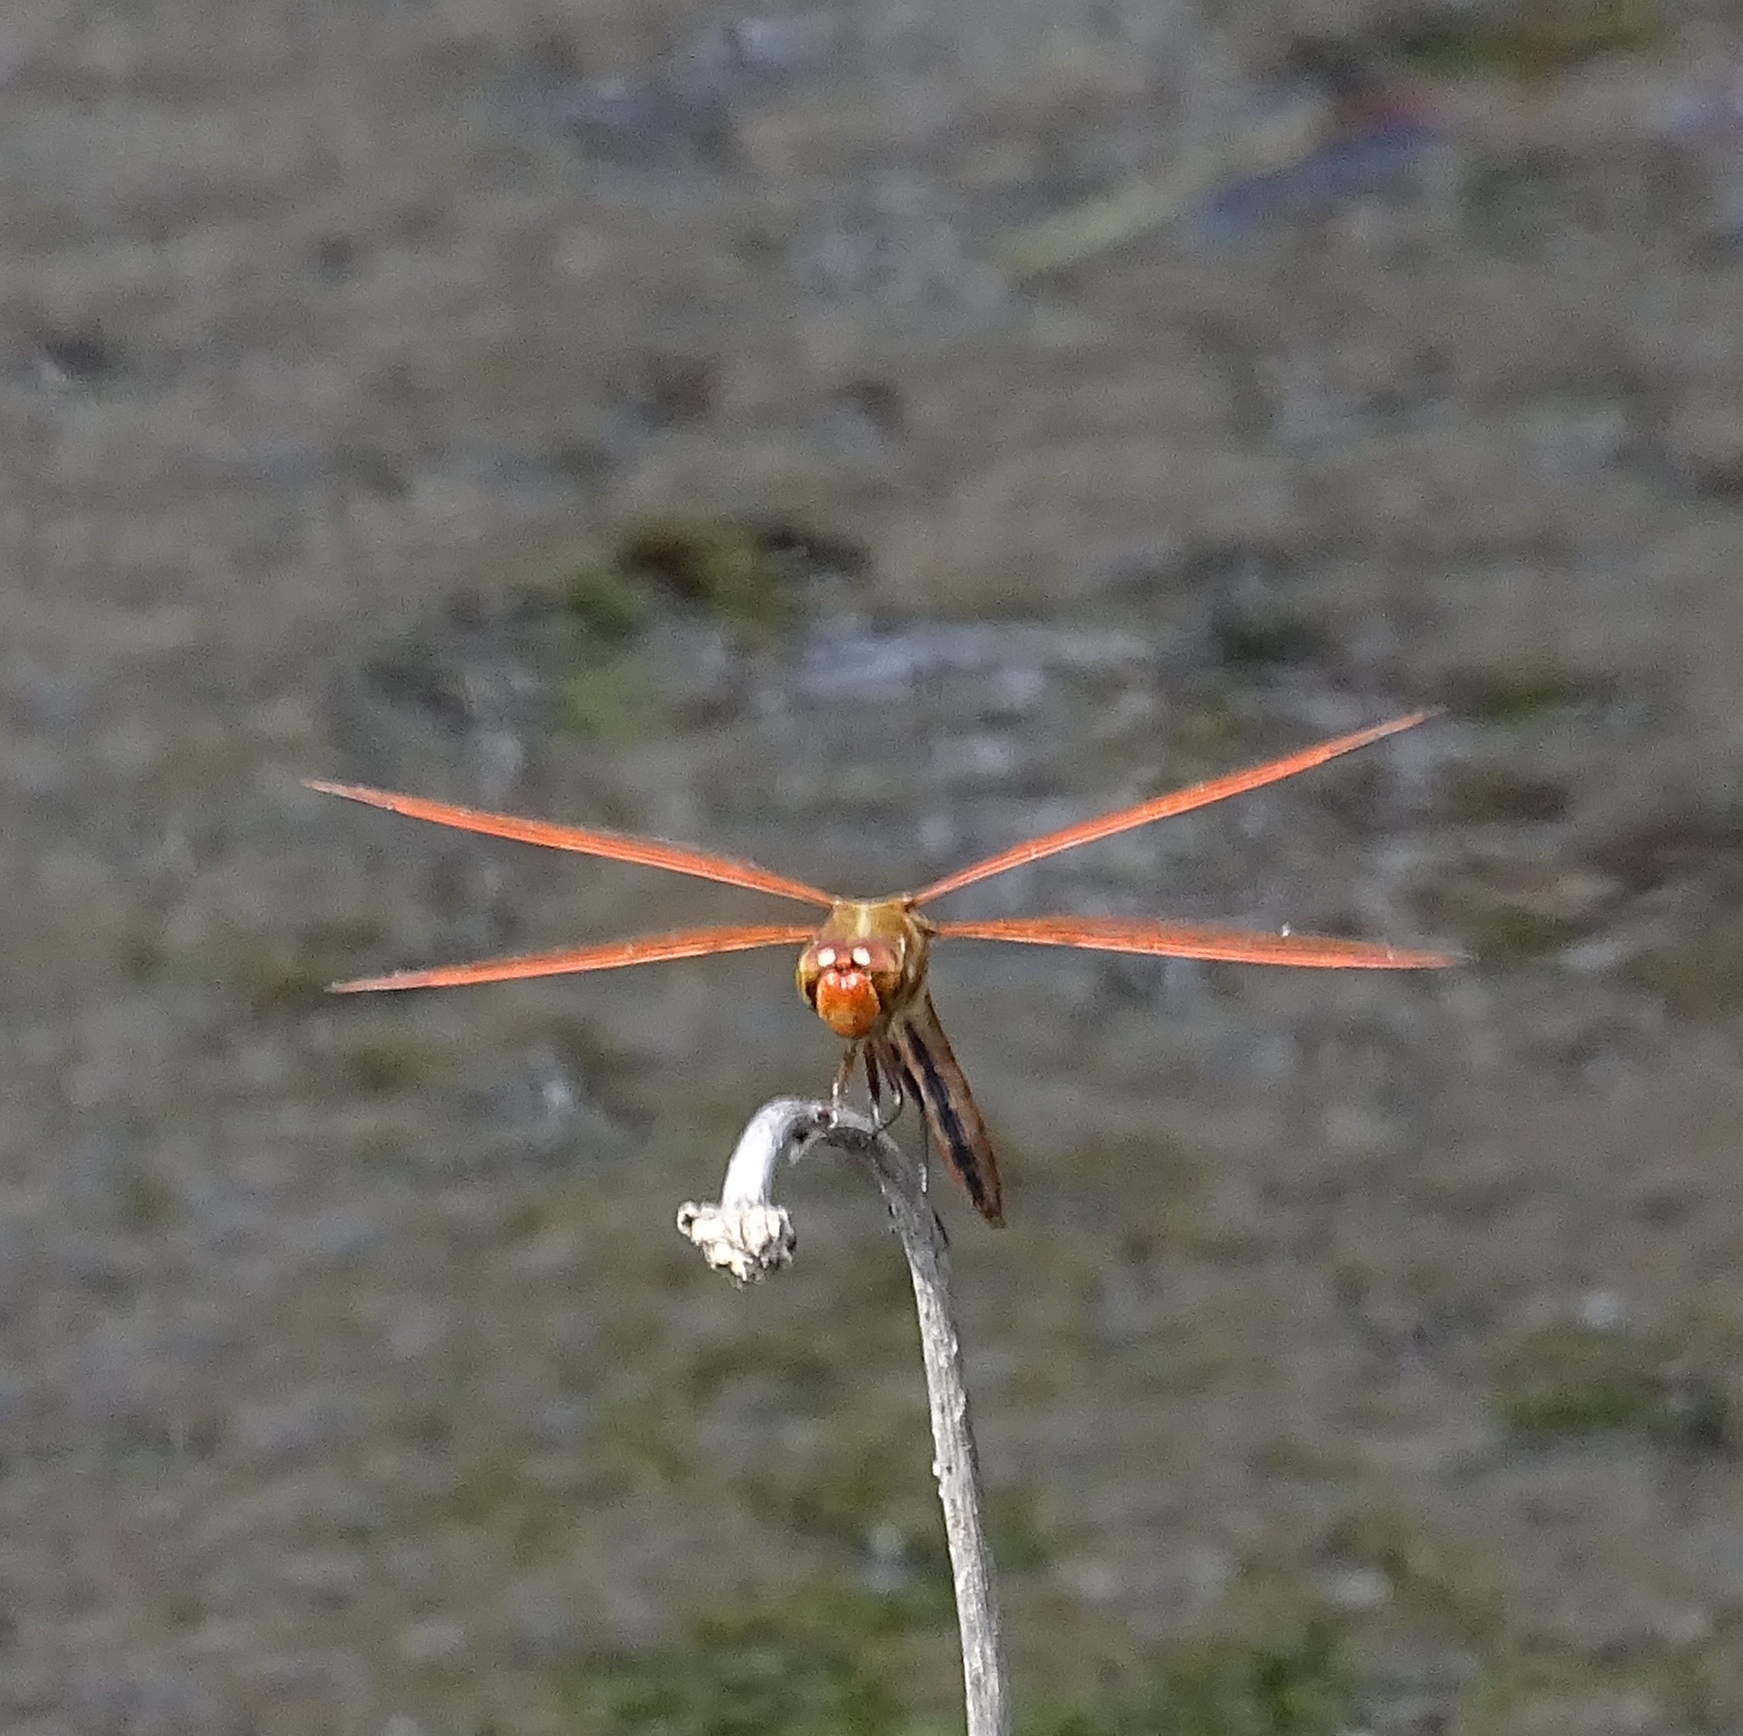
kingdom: Animalia
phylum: Arthropoda
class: Insecta
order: Odonata
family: Libellulidae
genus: Libellula
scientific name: Libellula auripennis
